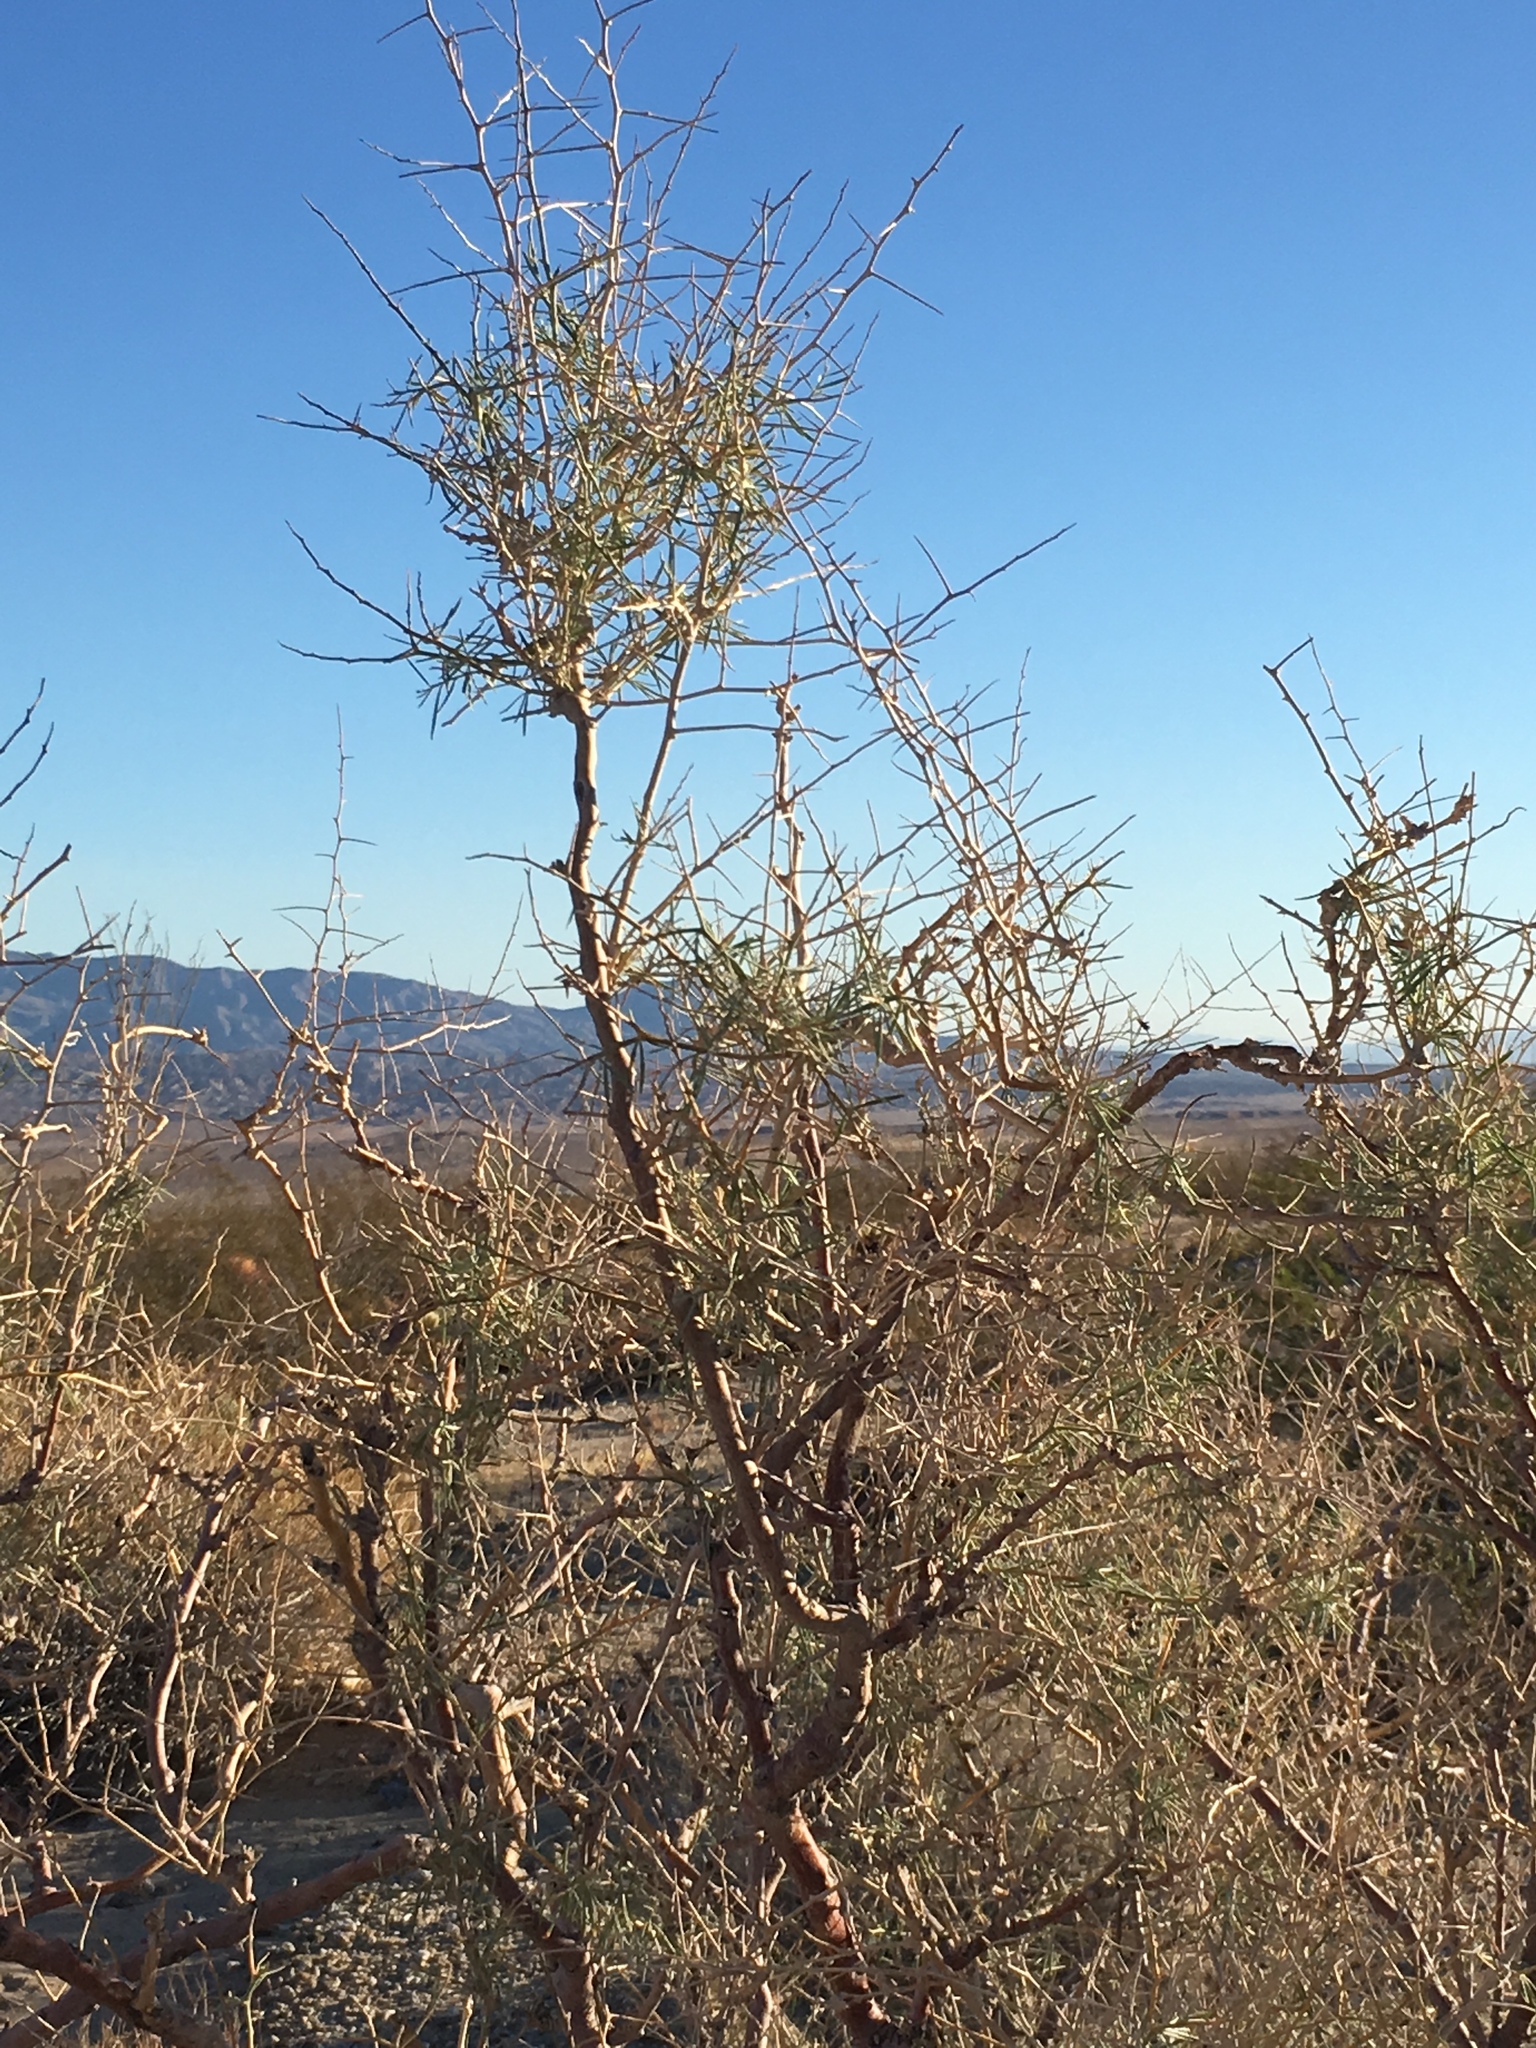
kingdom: Plantae
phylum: Tracheophyta
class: Magnoliopsida
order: Fabales
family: Fabaceae
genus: Psorothamnus
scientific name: Psorothamnus schottii
